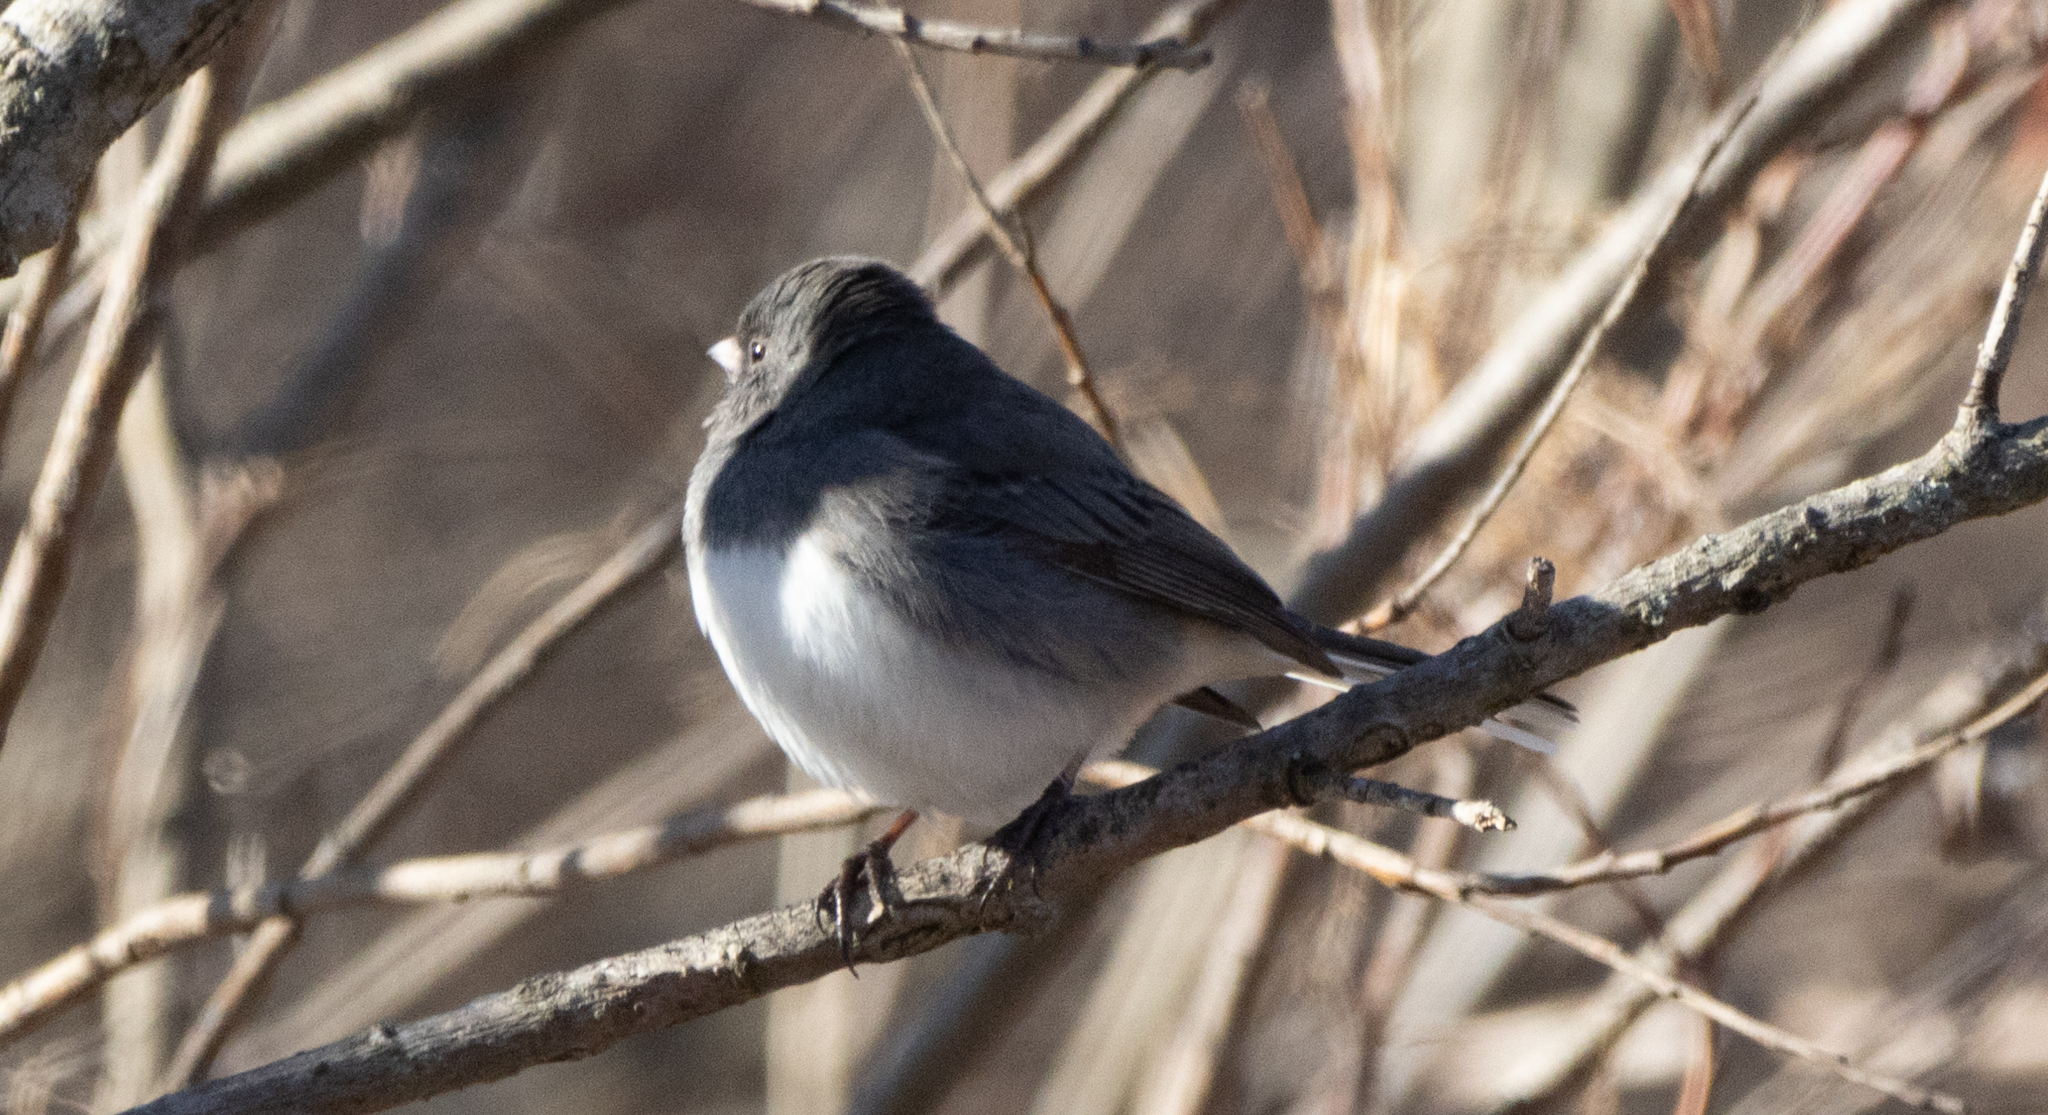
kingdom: Animalia
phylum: Chordata
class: Aves
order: Passeriformes
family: Passerellidae
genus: Junco
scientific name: Junco hyemalis
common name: Dark-eyed junco
